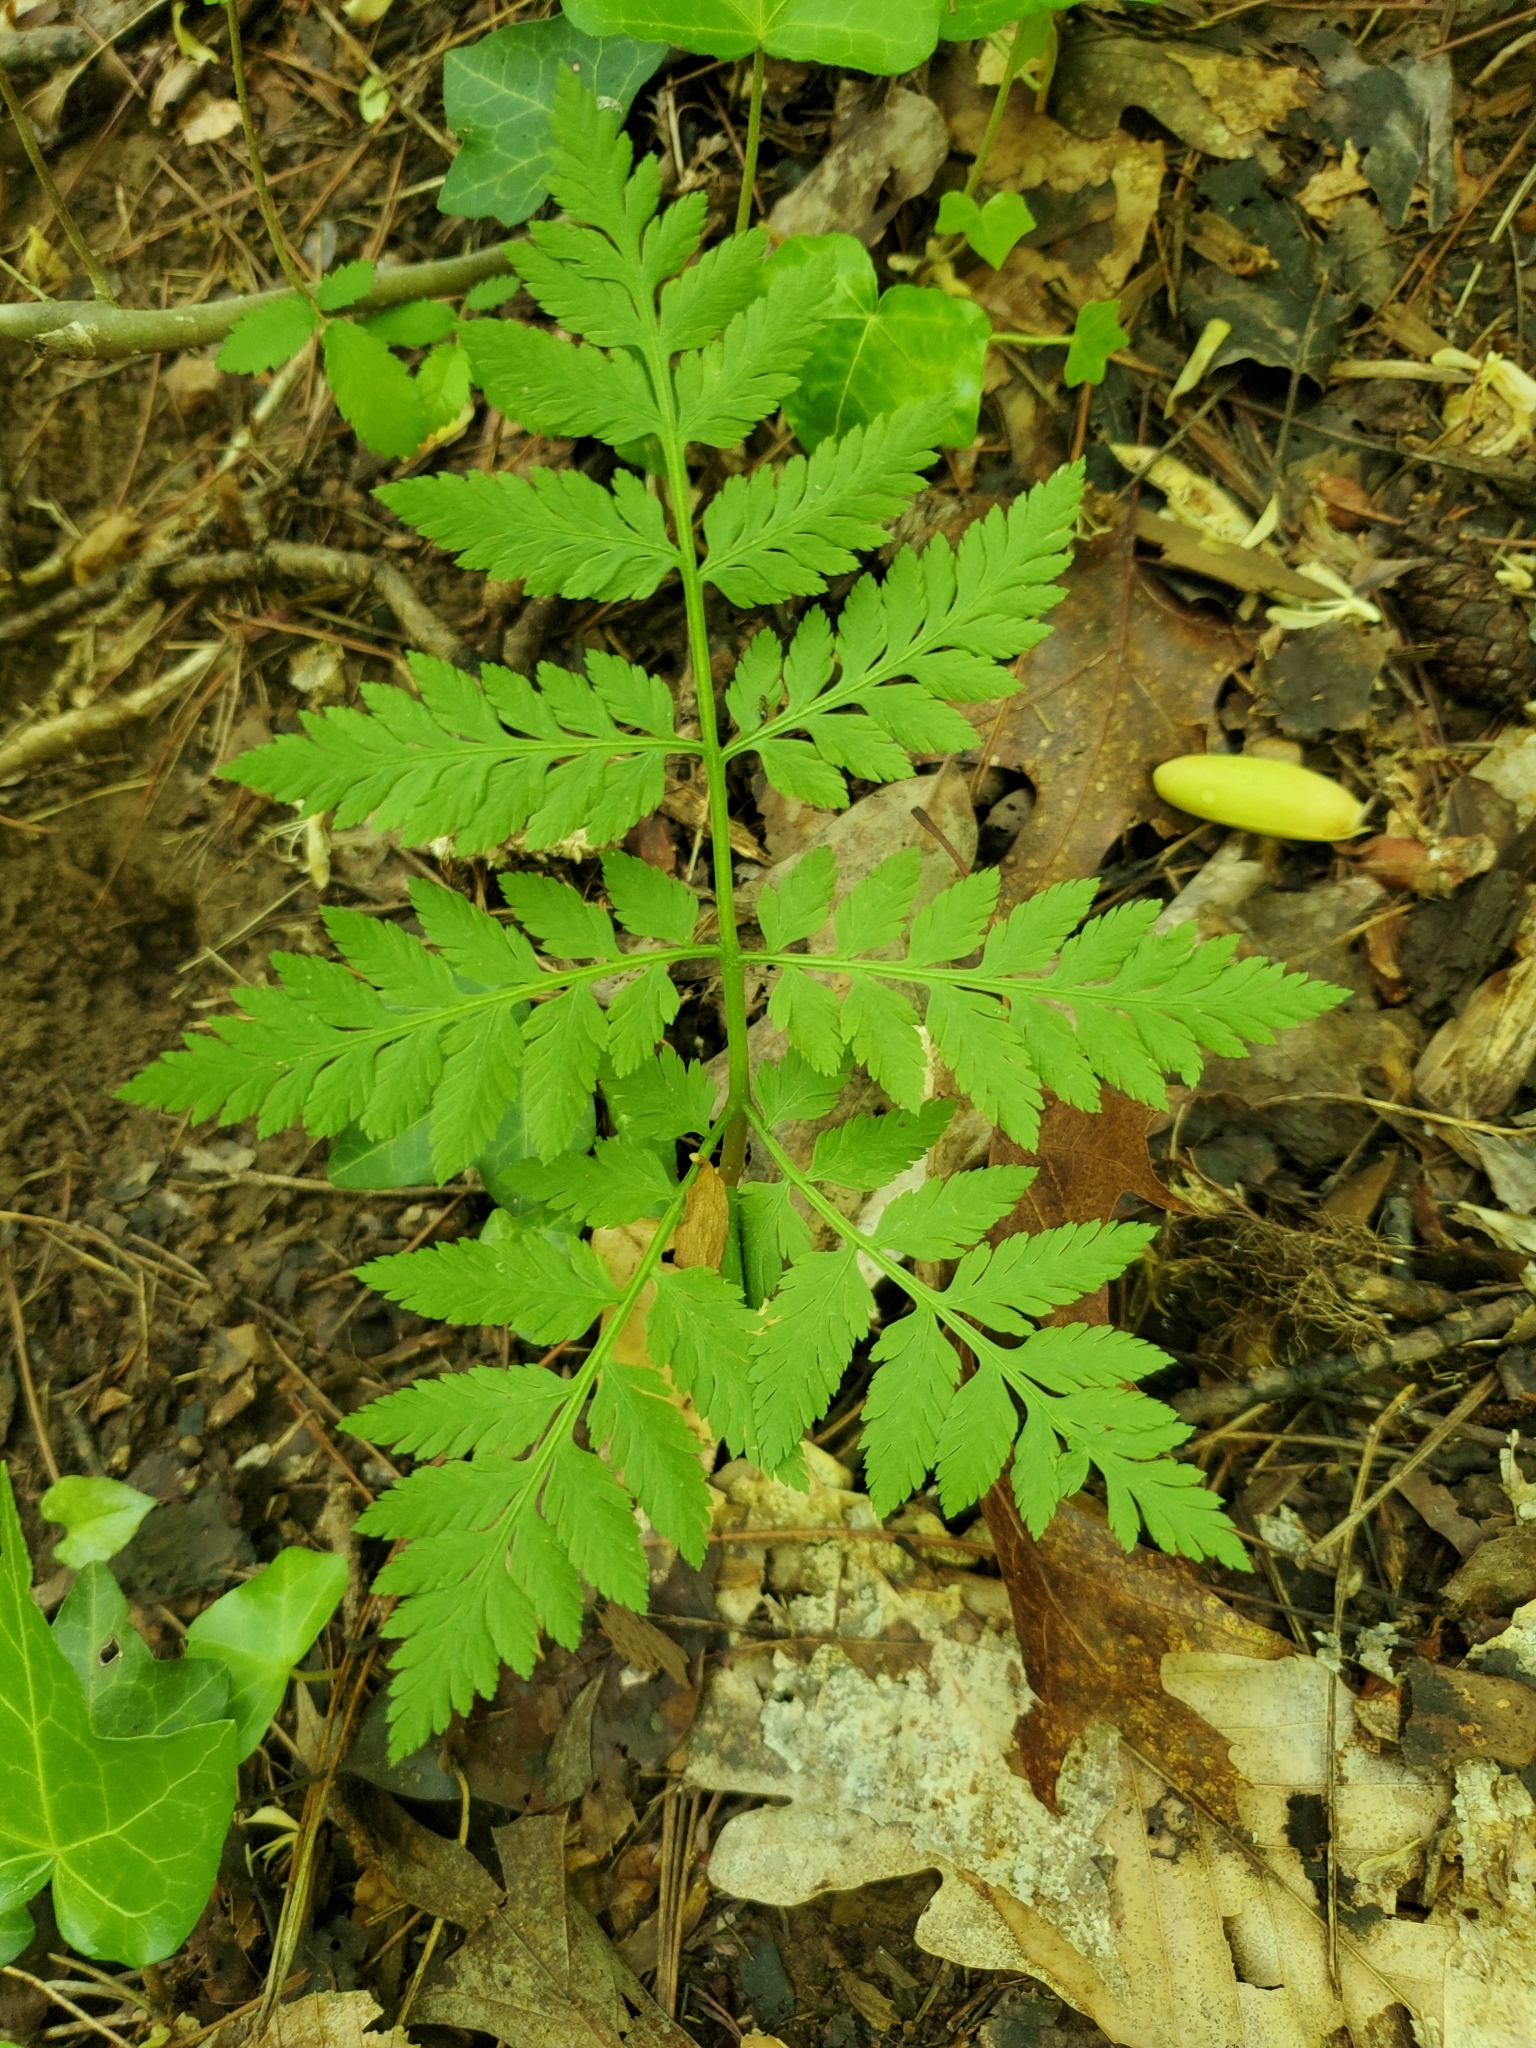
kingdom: Plantae
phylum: Tracheophyta
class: Polypodiopsida
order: Ophioglossales
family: Ophioglossaceae
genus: Botrypus
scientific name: Botrypus virginianus
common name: Common grapefern
